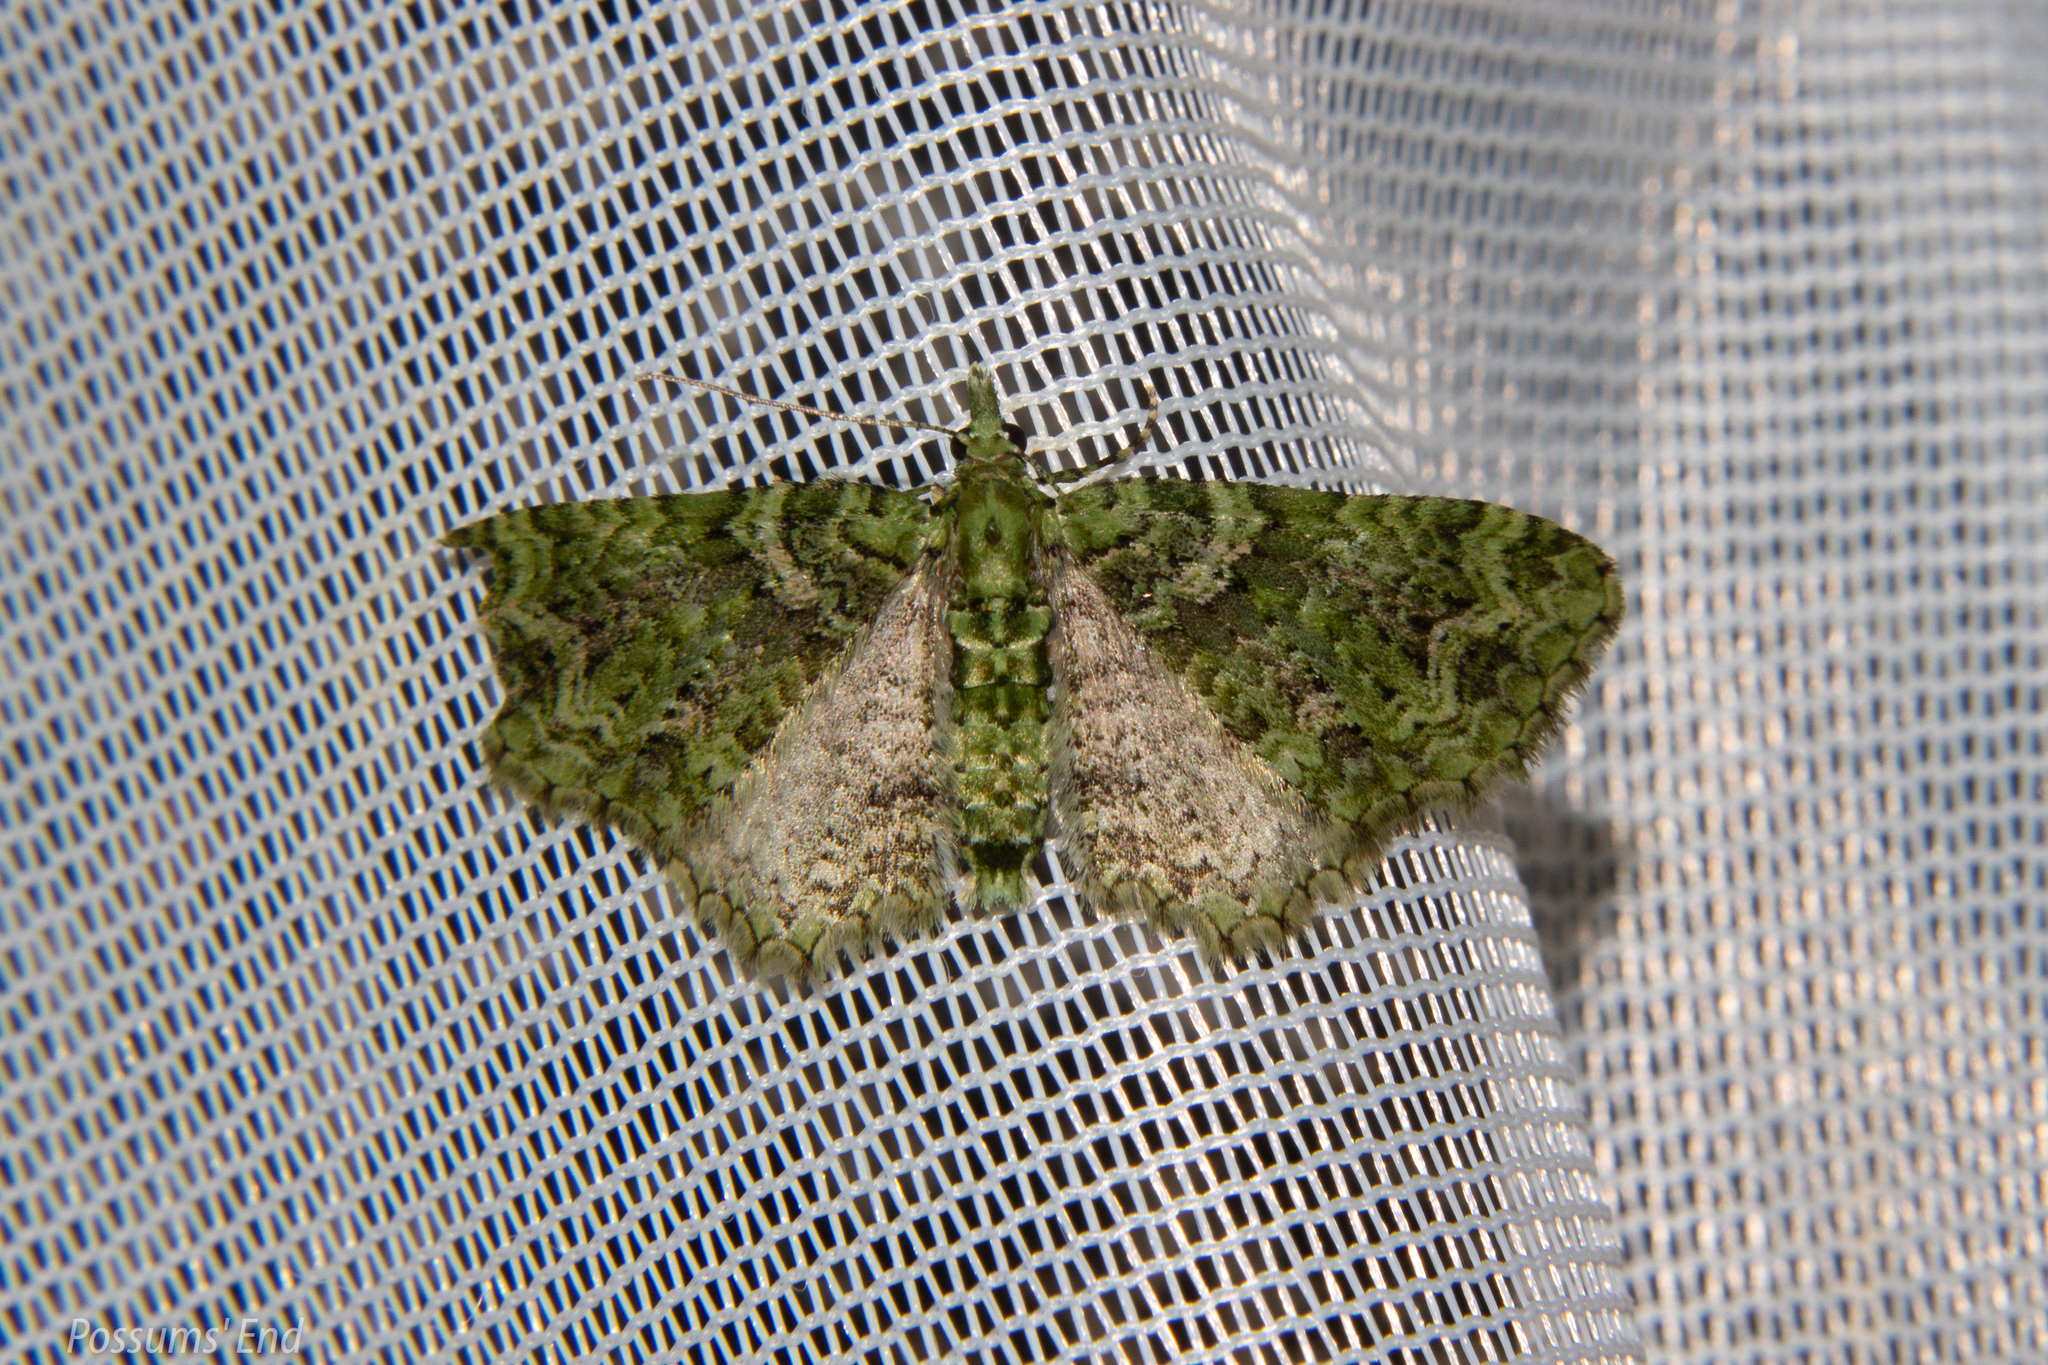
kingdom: Animalia
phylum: Arthropoda
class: Insecta
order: Lepidoptera
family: Geometridae
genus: Pasiphila
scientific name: Pasiphila muscosata
